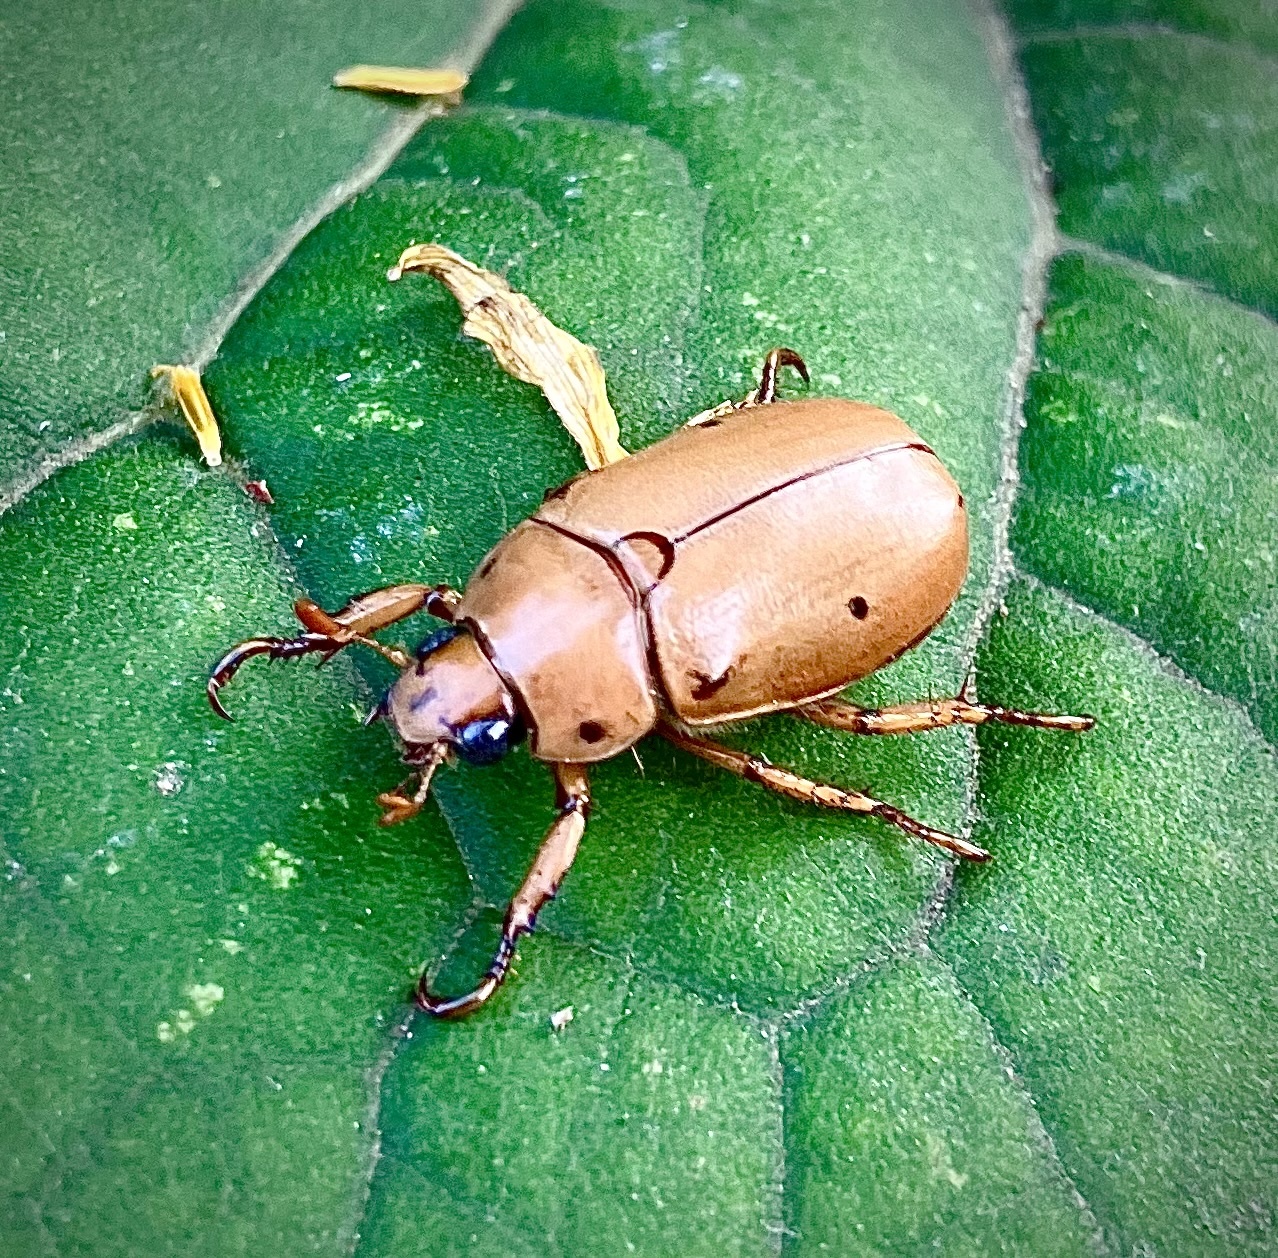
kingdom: Animalia
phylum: Arthropoda
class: Insecta
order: Coleoptera
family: Scarabaeidae
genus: Pelidnota
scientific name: Pelidnota punctata
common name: Grapevine beetle
